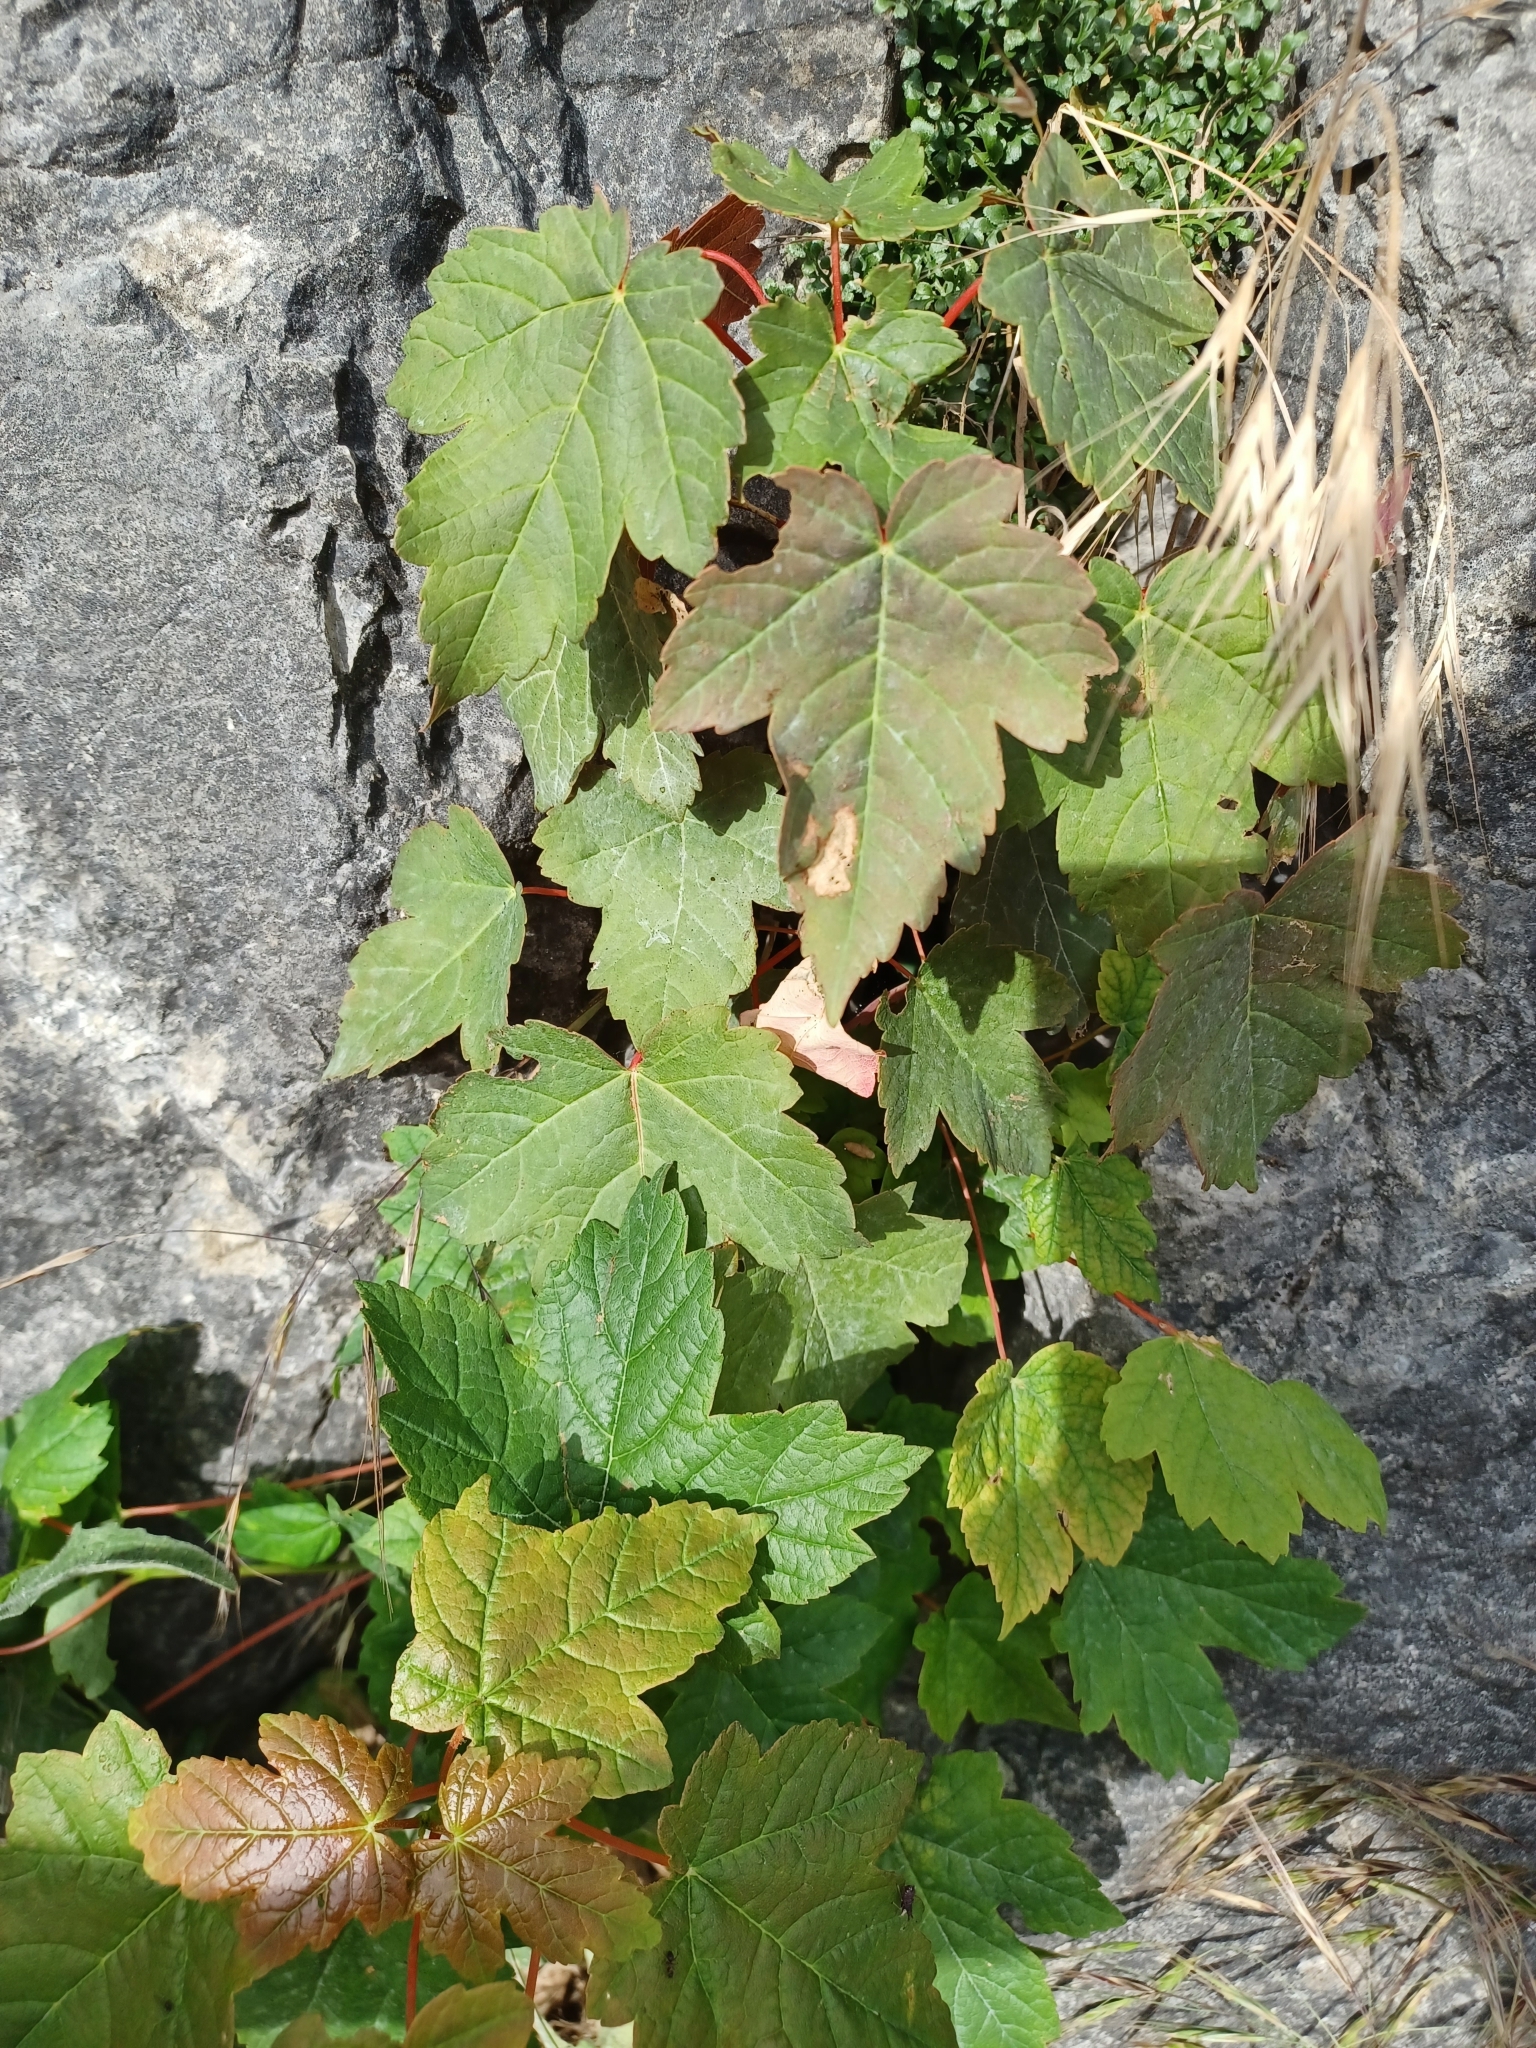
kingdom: Plantae
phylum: Tracheophyta
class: Magnoliopsida
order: Sapindales
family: Sapindaceae
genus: Acer
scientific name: Acer pseudoplatanus
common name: Sycamore
